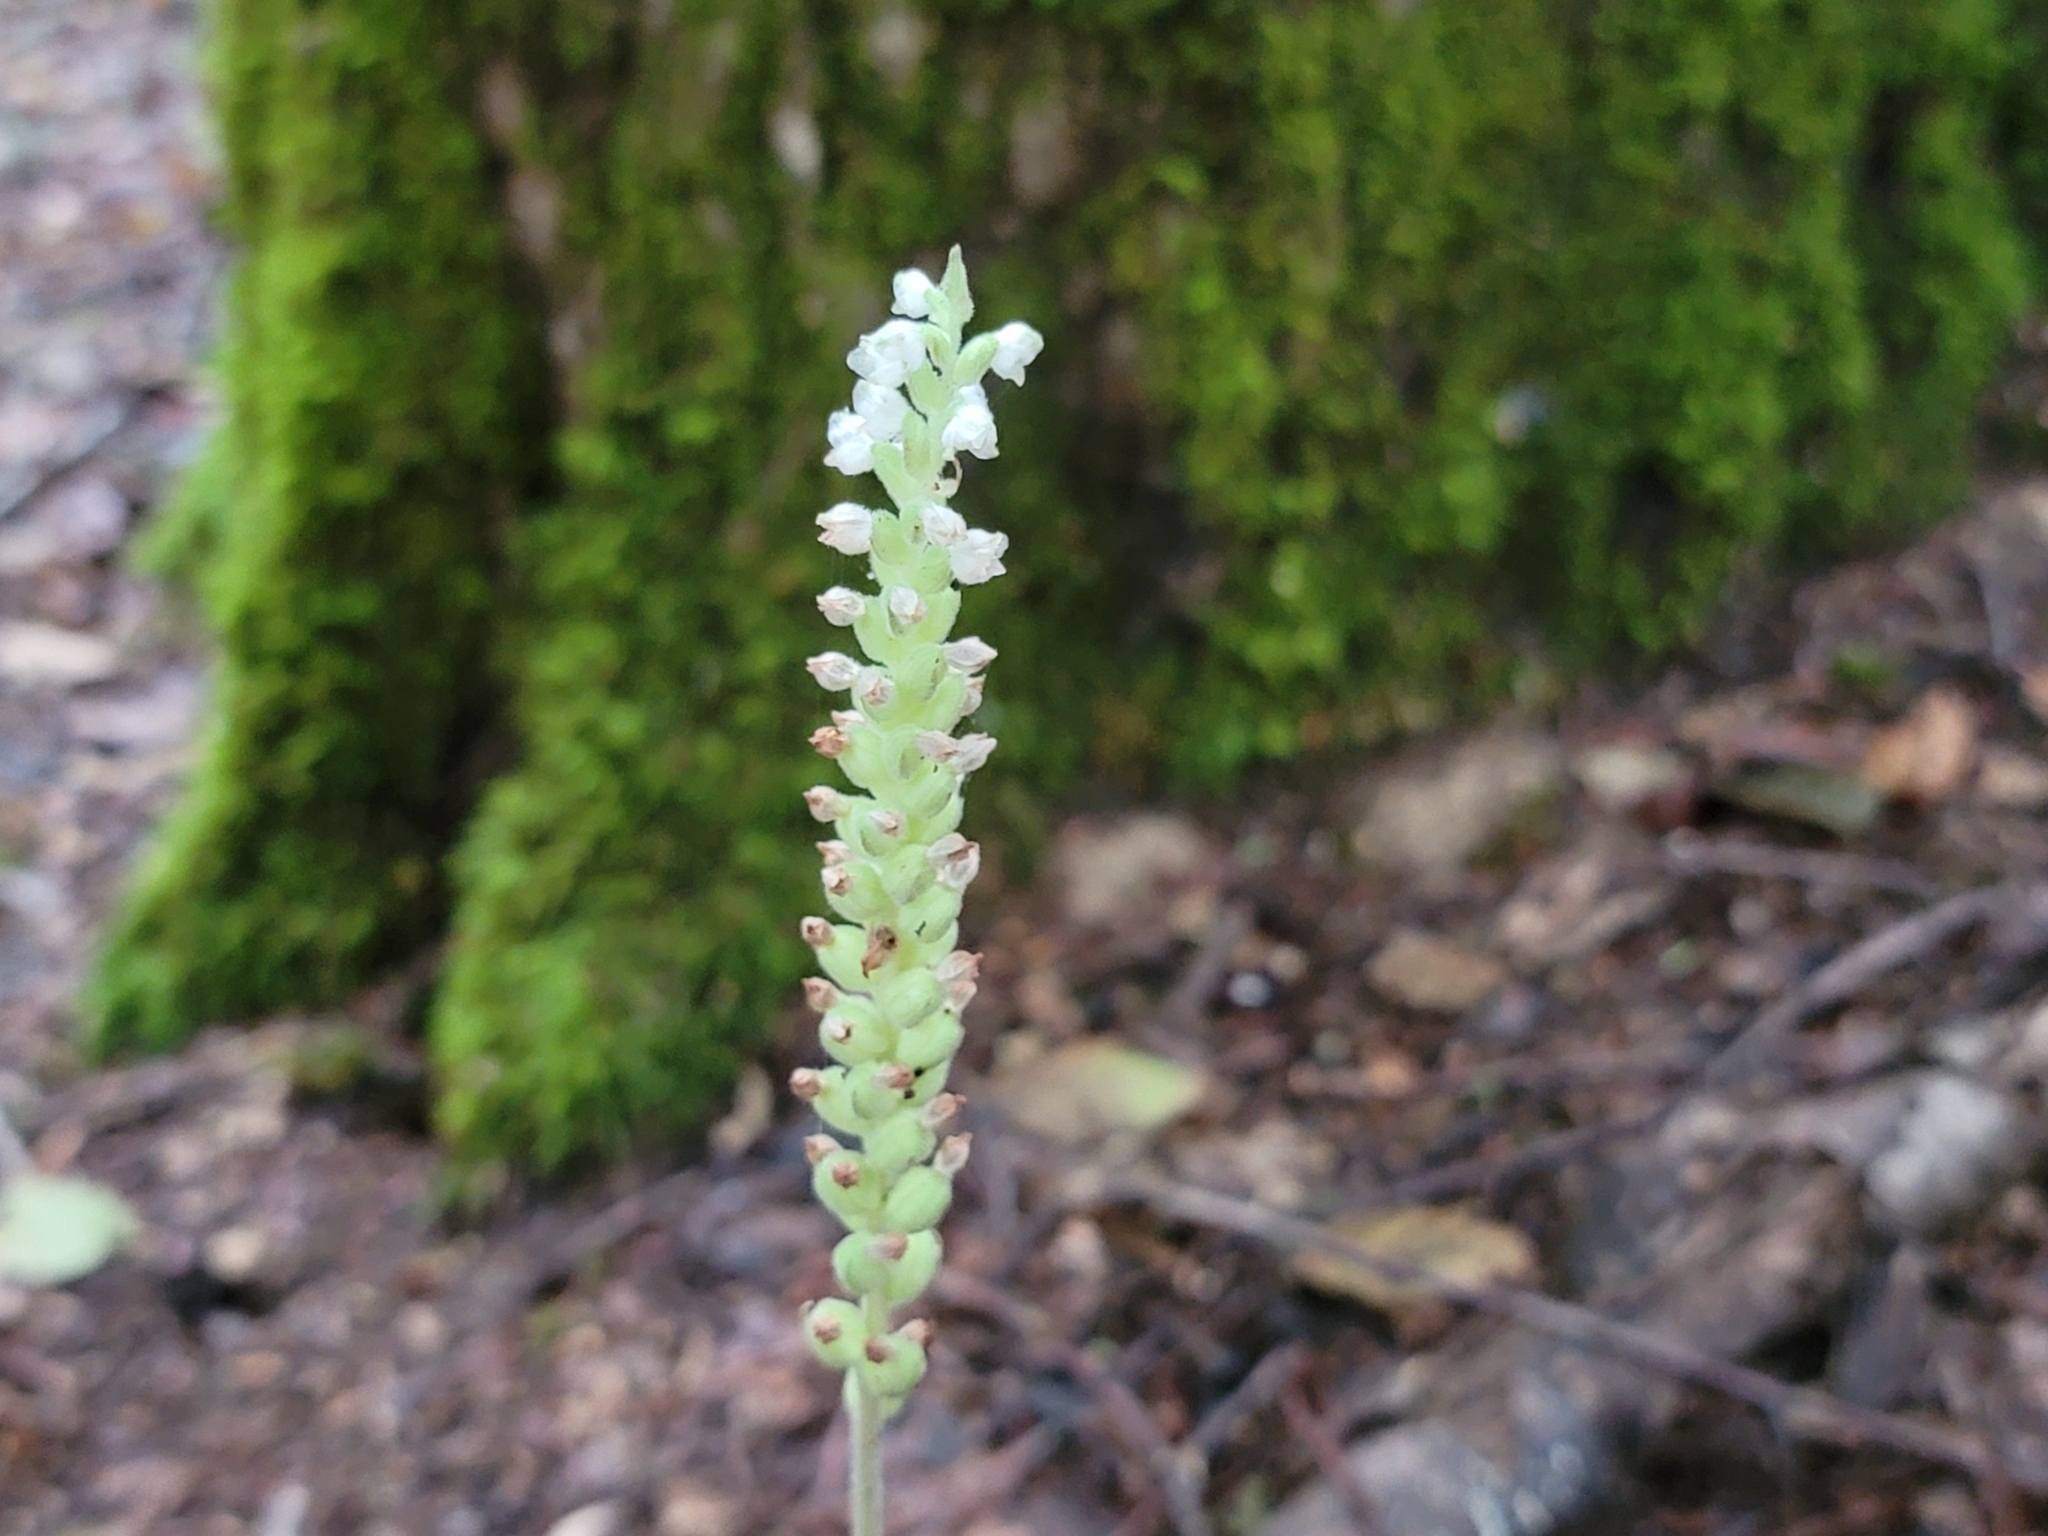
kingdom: Plantae
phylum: Tracheophyta
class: Liliopsida
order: Asparagales
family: Orchidaceae
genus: Goodyera
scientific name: Goodyera pubescens
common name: Downy rattlesnake-plantain
